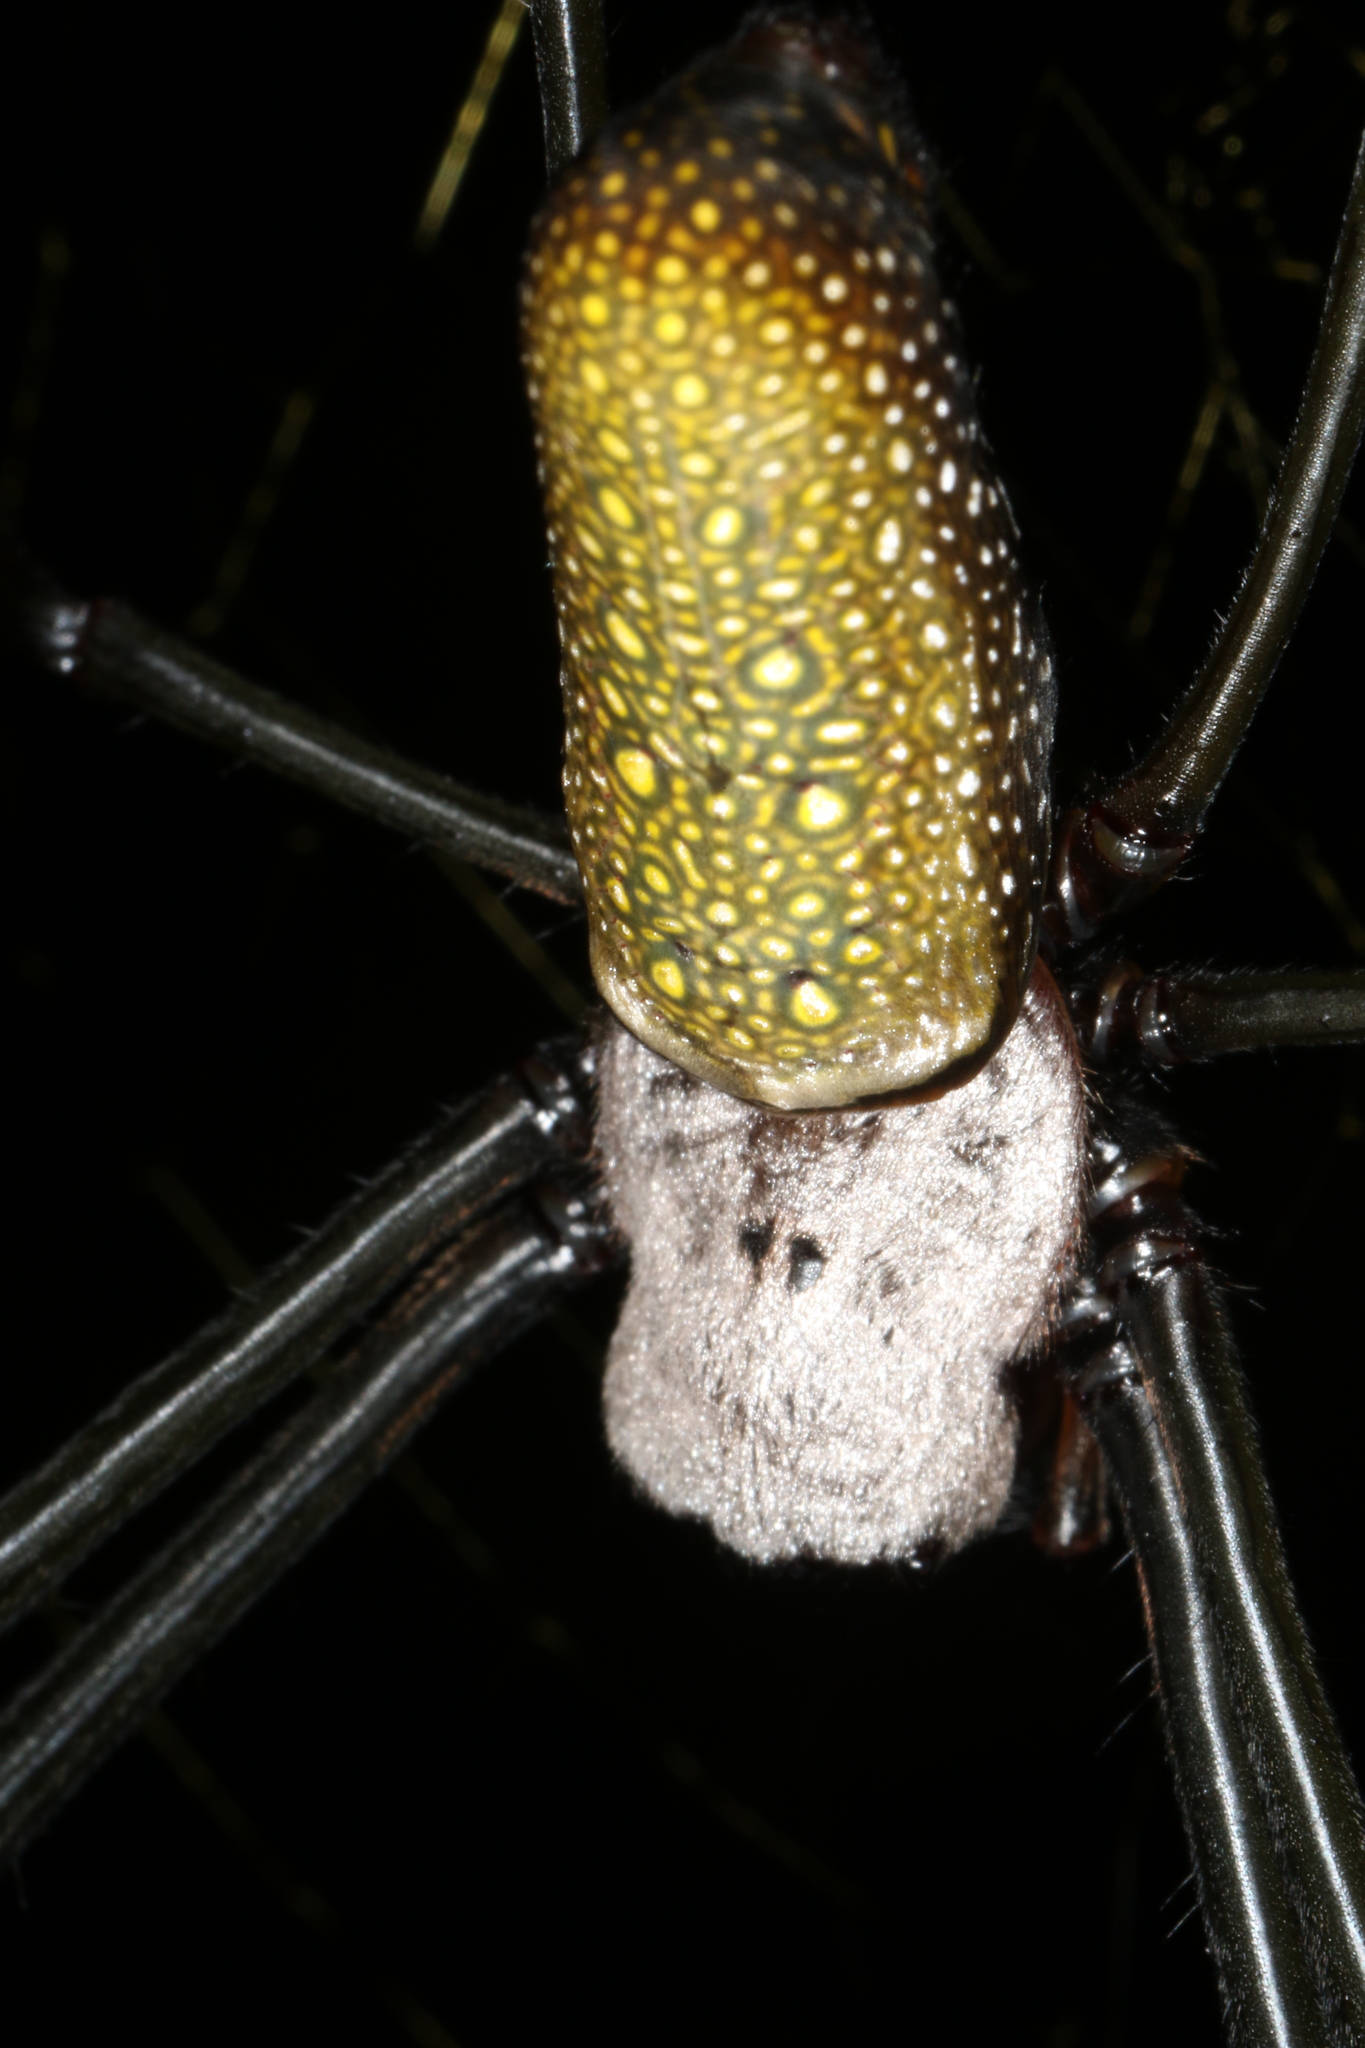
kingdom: Animalia
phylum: Arthropoda
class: Arachnida
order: Araneae
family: Araneidae
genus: Trichonephila
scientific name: Trichonephila clavipes
